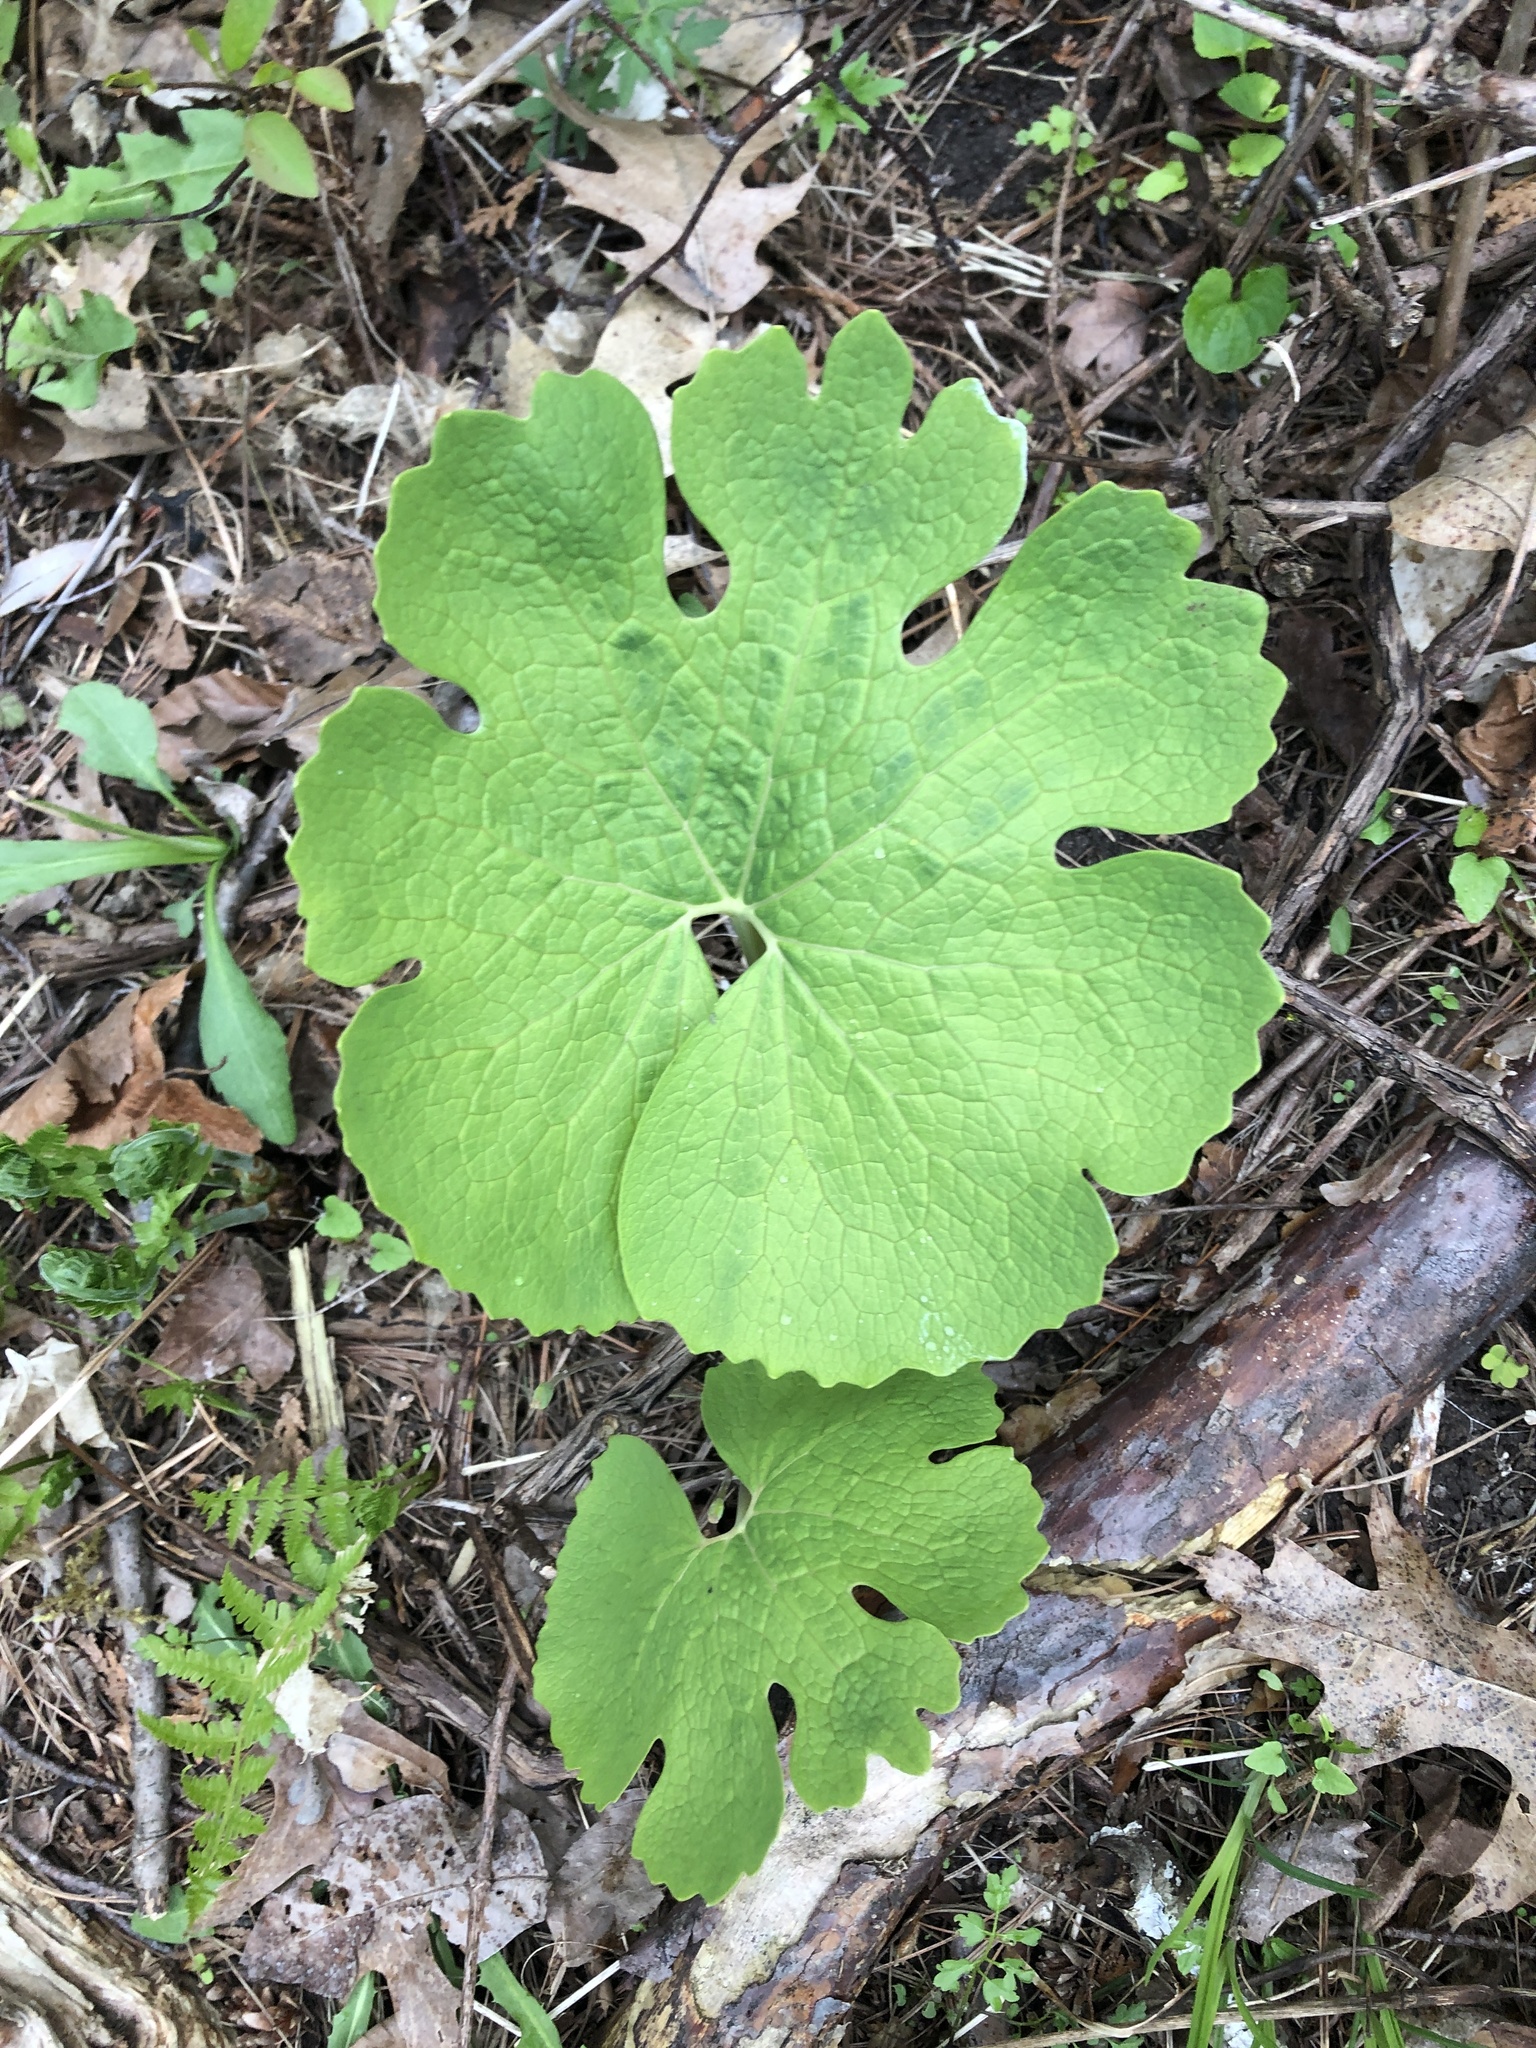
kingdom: Plantae
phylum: Tracheophyta
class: Magnoliopsida
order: Ranunculales
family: Papaveraceae
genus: Sanguinaria
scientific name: Sanguinaria canadensis
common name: Bloodroot
